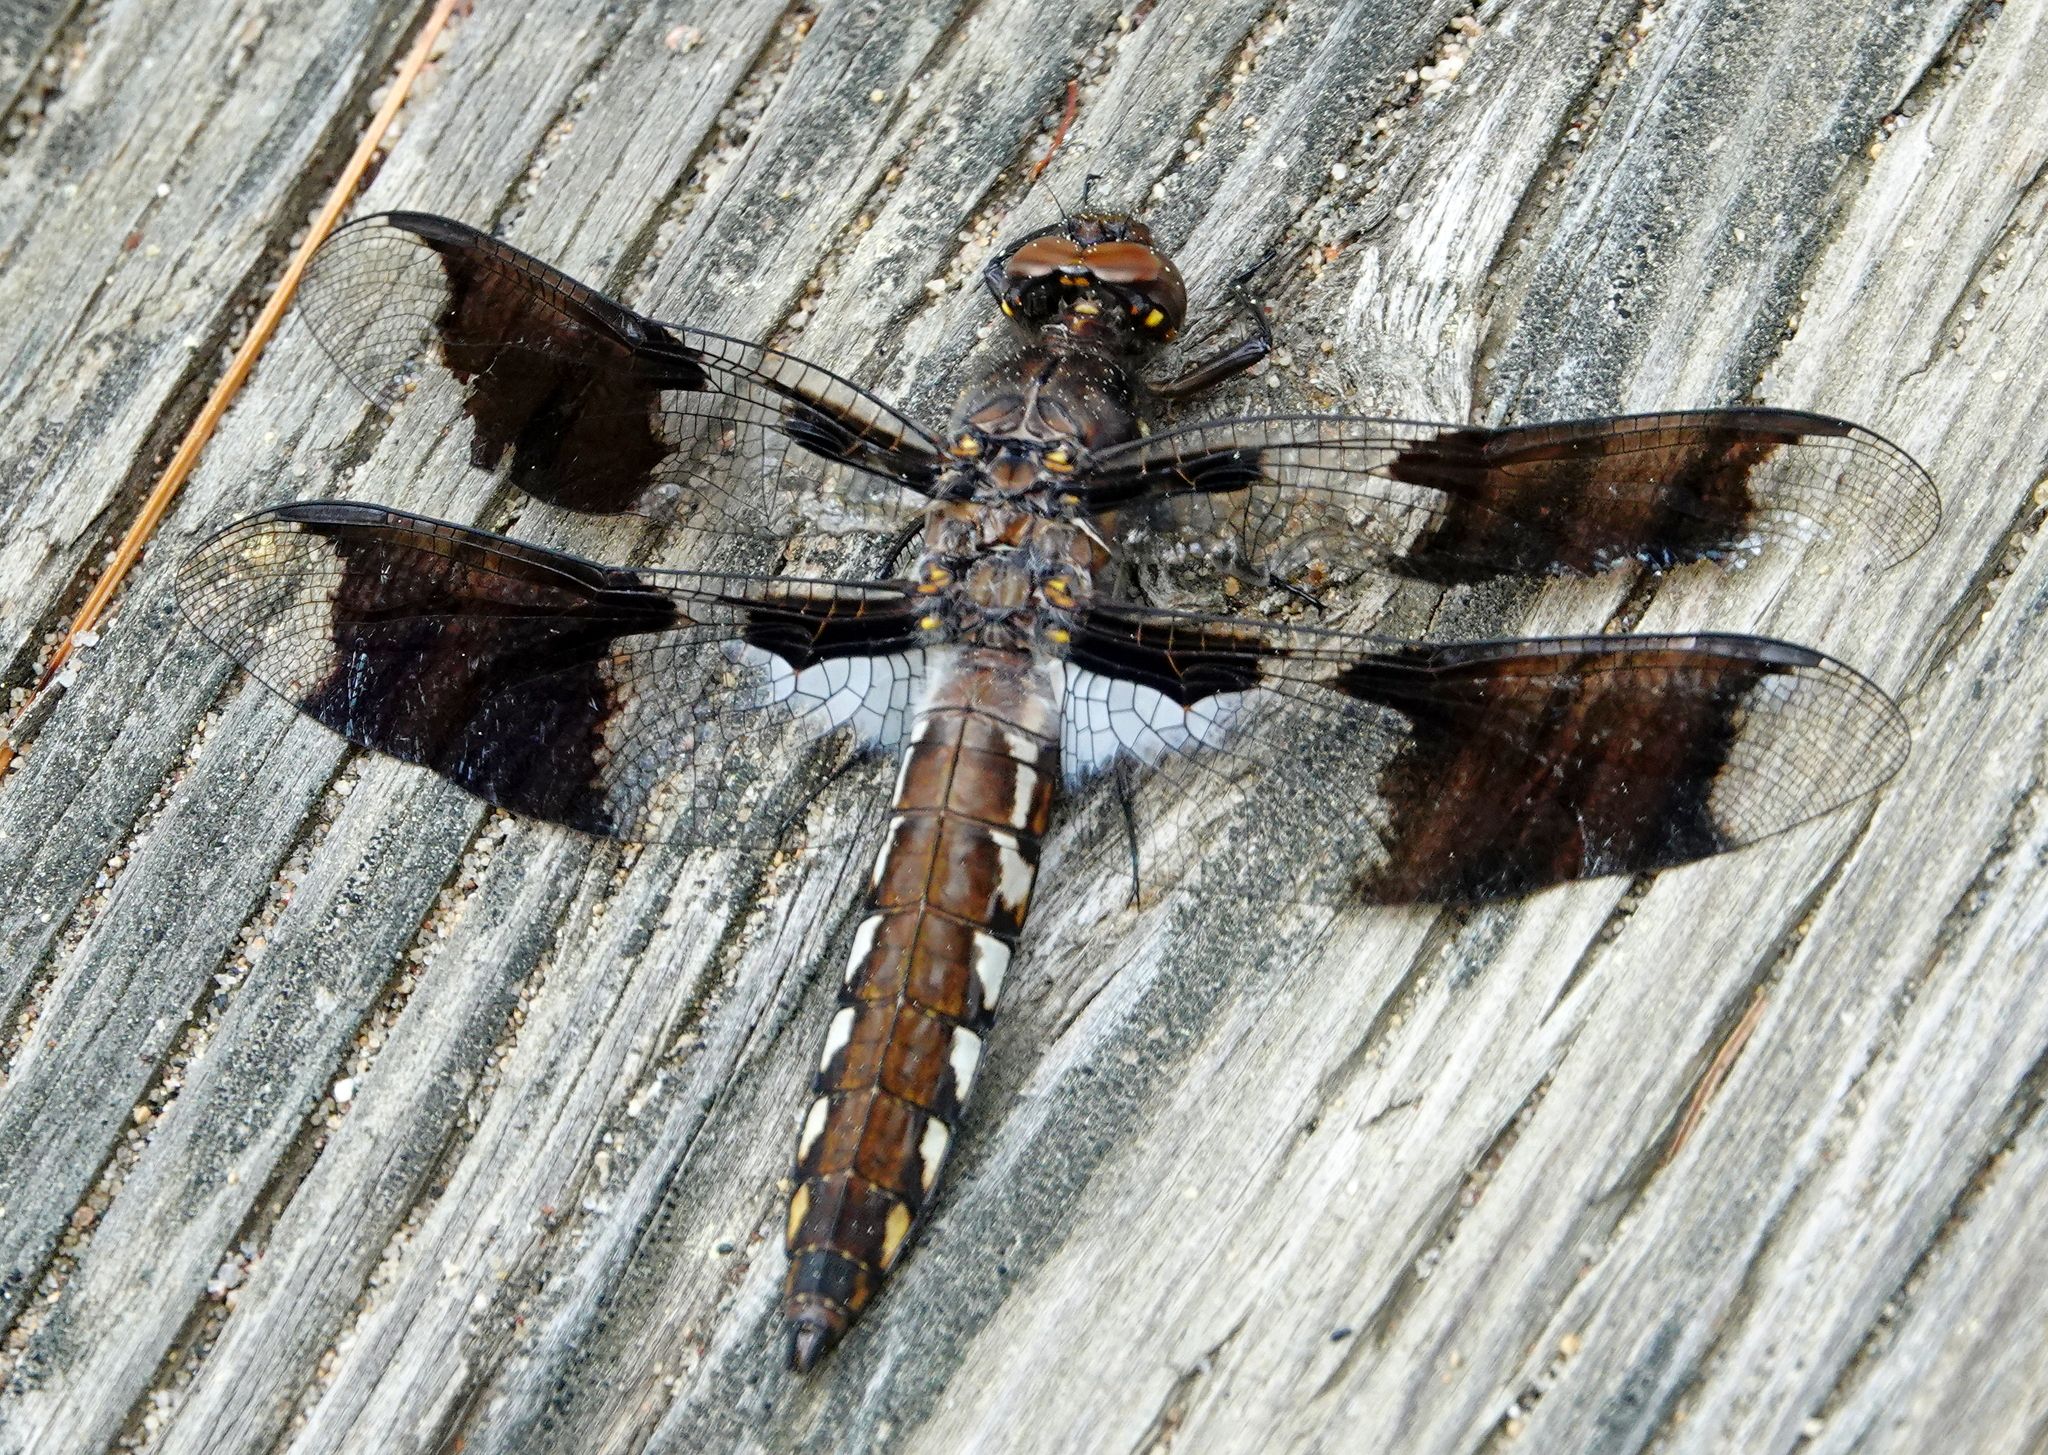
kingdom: Animalia
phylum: Arthropoda
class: Insecta
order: Odonata
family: Libellulidae
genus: Plathemis
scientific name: Plathemis lydia
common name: Common whitetail
